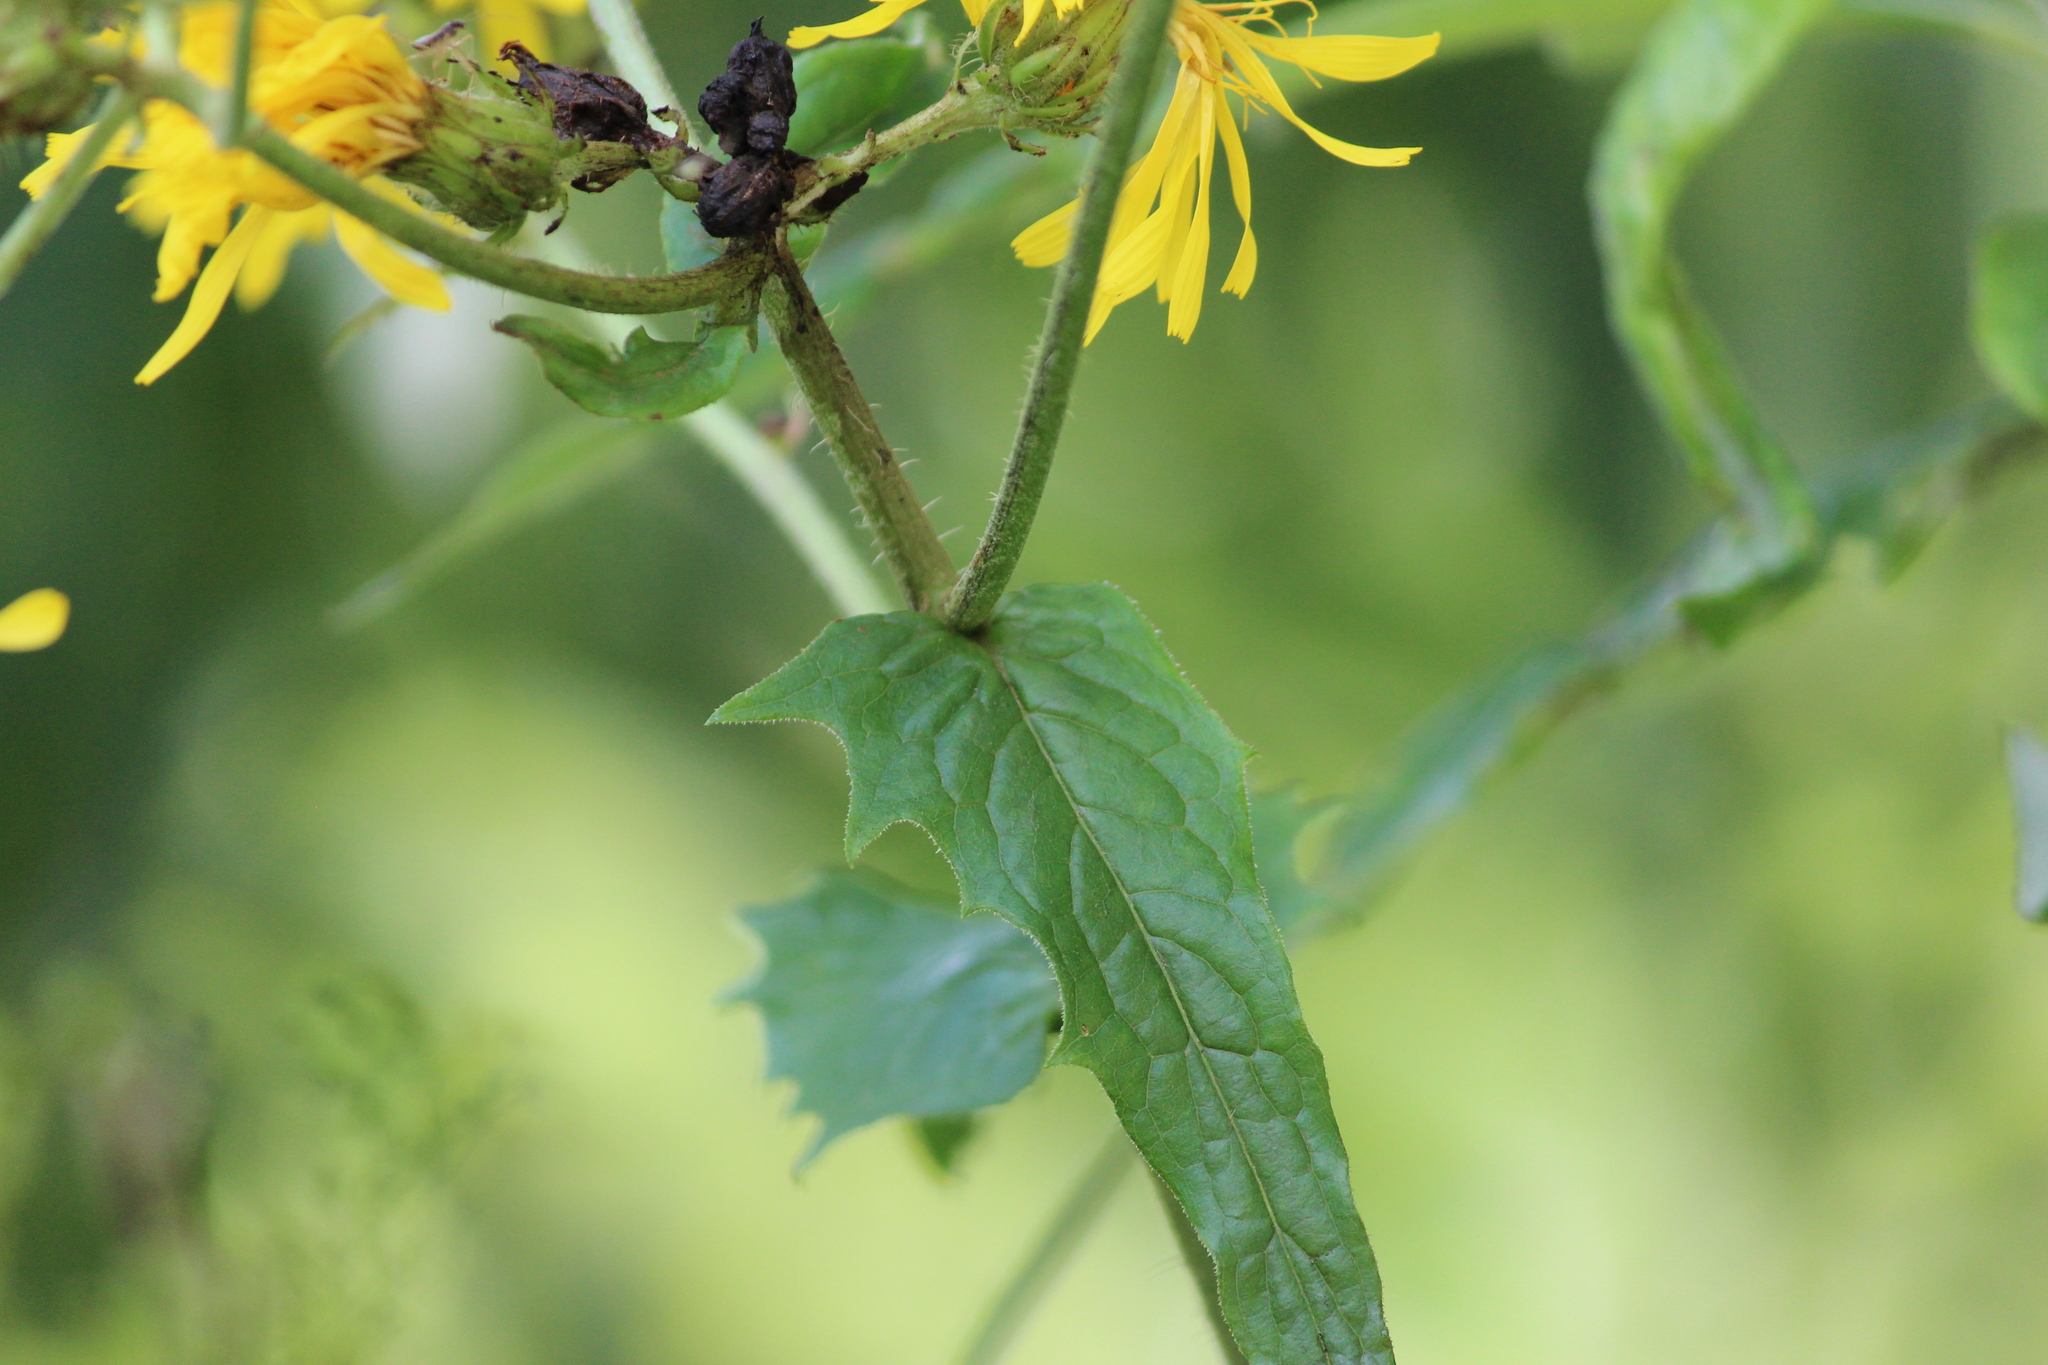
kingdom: Plantae
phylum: Tracheophyta
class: Magnoliopsida
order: Asterales
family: Asteraceae
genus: Crepis
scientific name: Crepis sibirica
